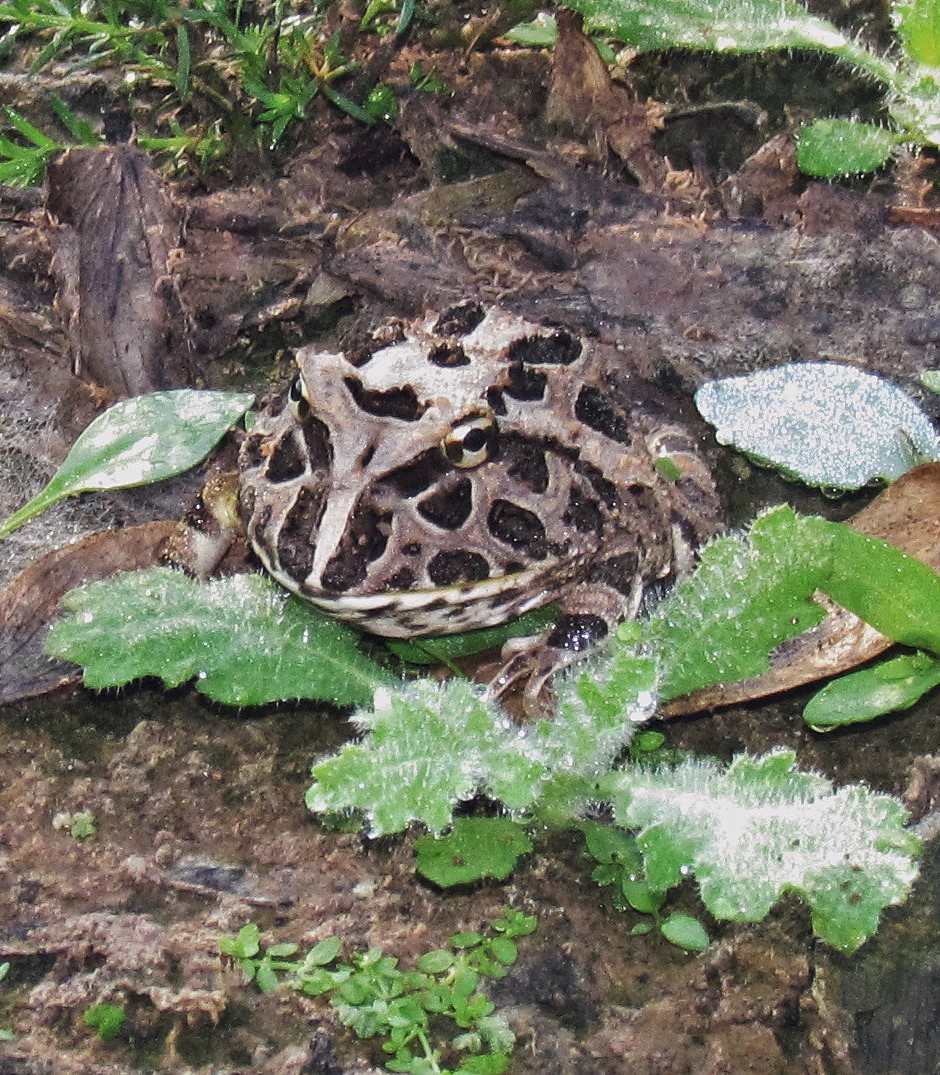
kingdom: Animalia
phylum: Chordata
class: Amphibia
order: Anura
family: Ceratophryidae
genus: Ceratophrys
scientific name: Ceratophrys cranwelli
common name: Chacoan horned frog
